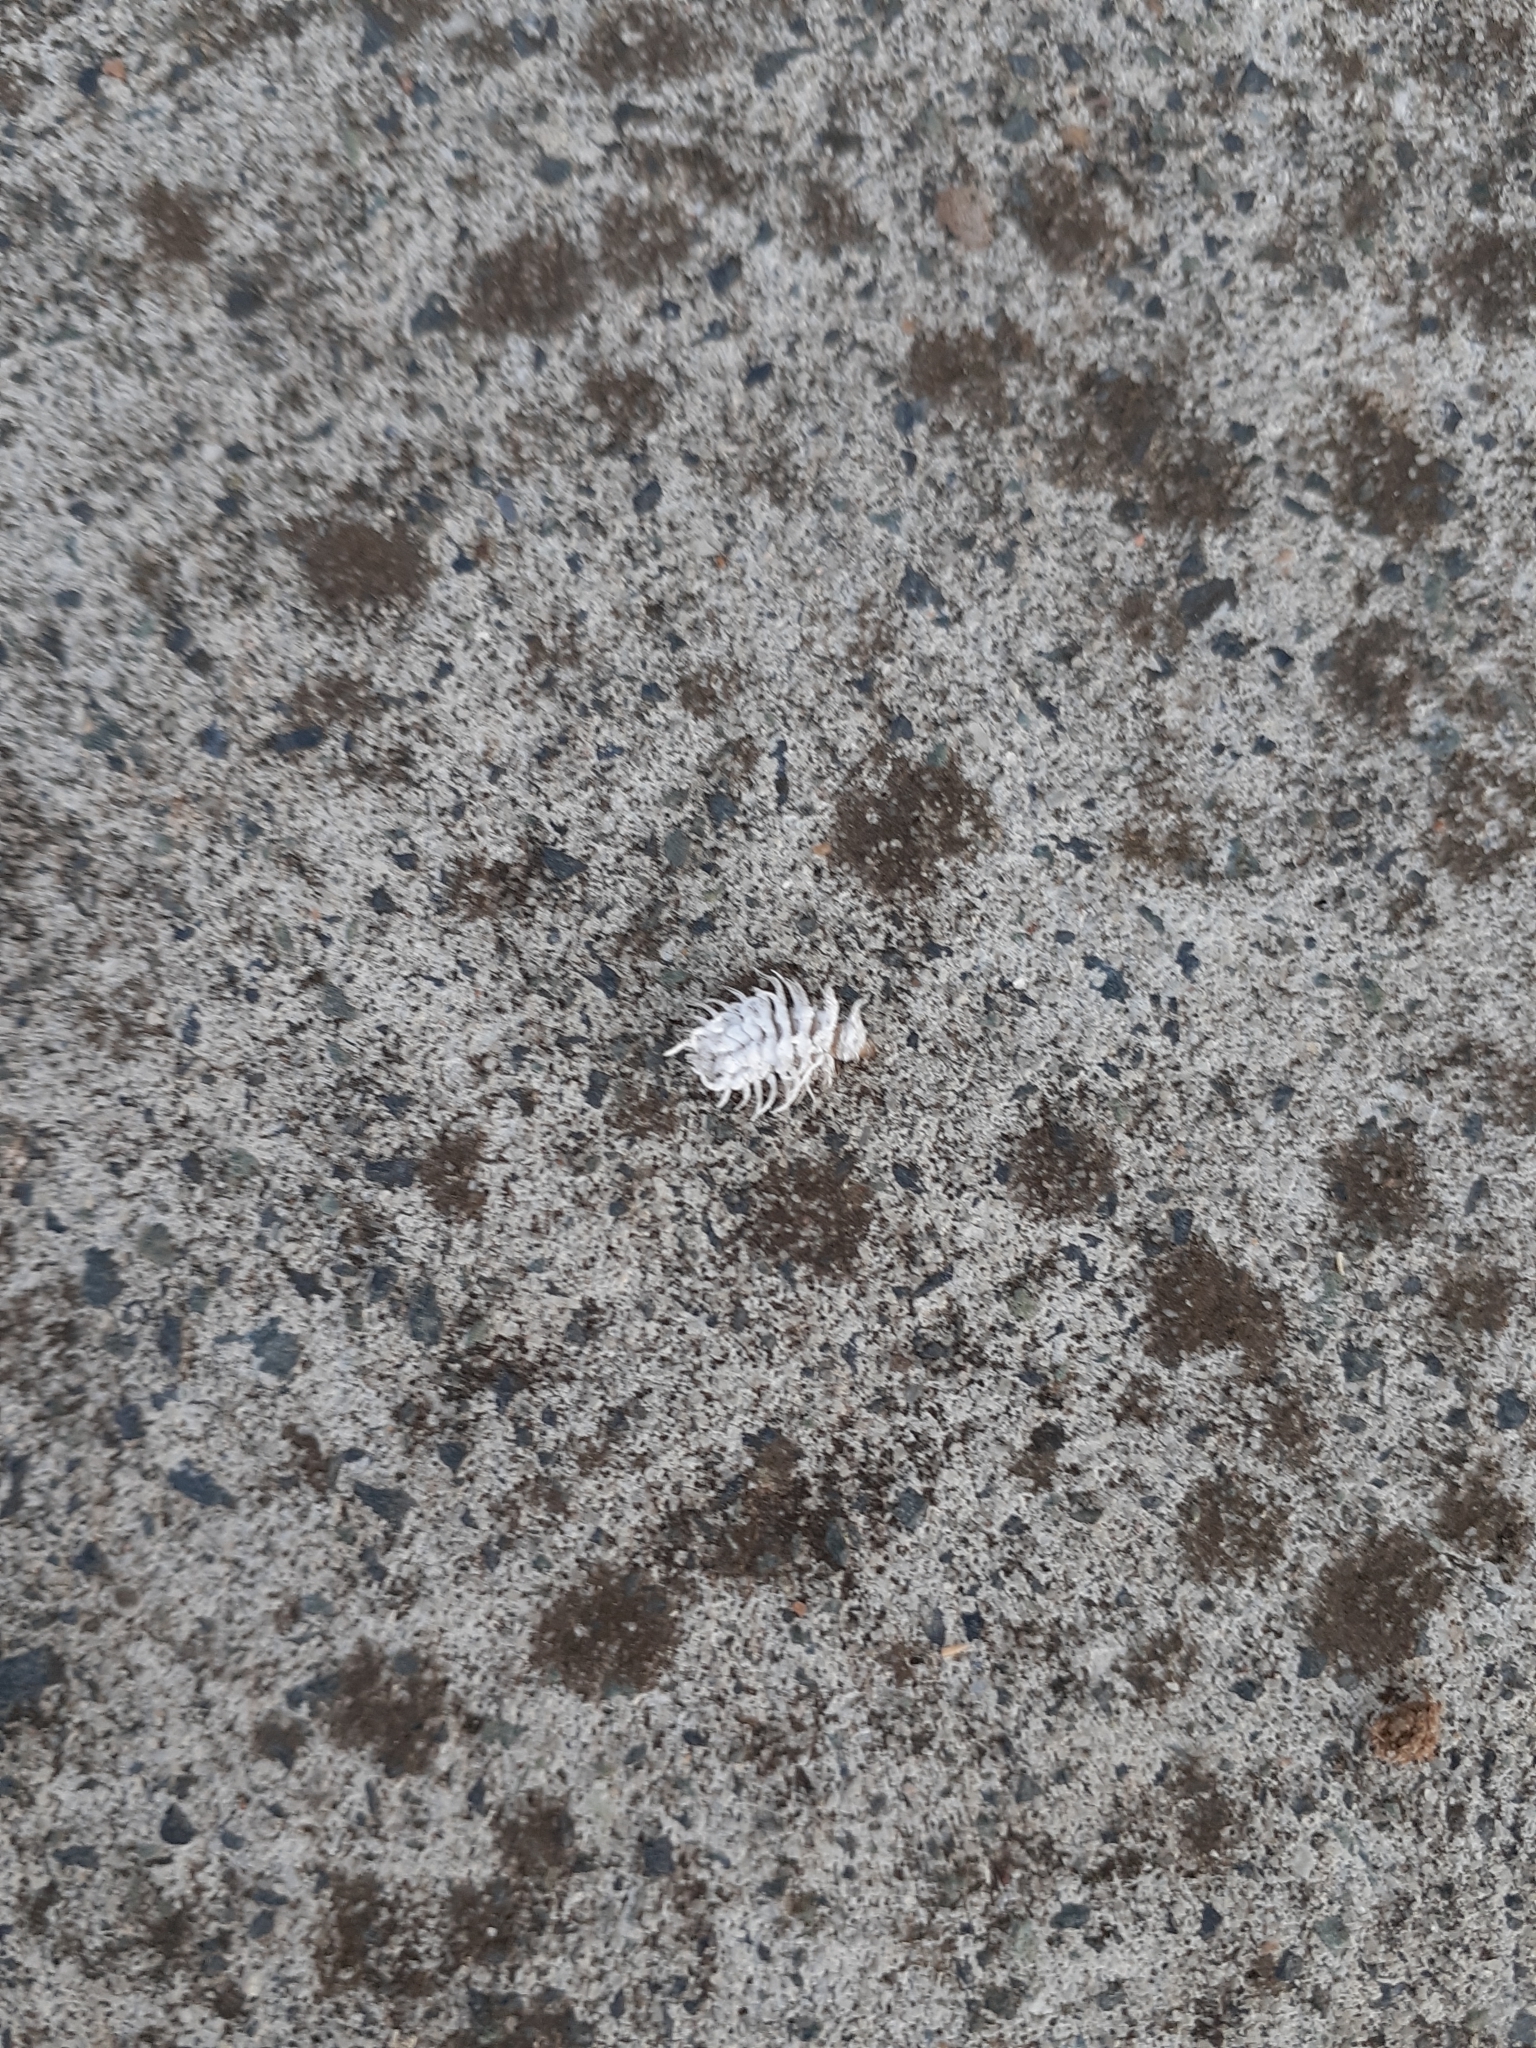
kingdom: Animalia
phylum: Arthropoda
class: Insecta
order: Coleoptera
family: Coccinellidae
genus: Cryptolaemus
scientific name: Cryptolaemus montrouzieri
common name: Mealybug destroyer
